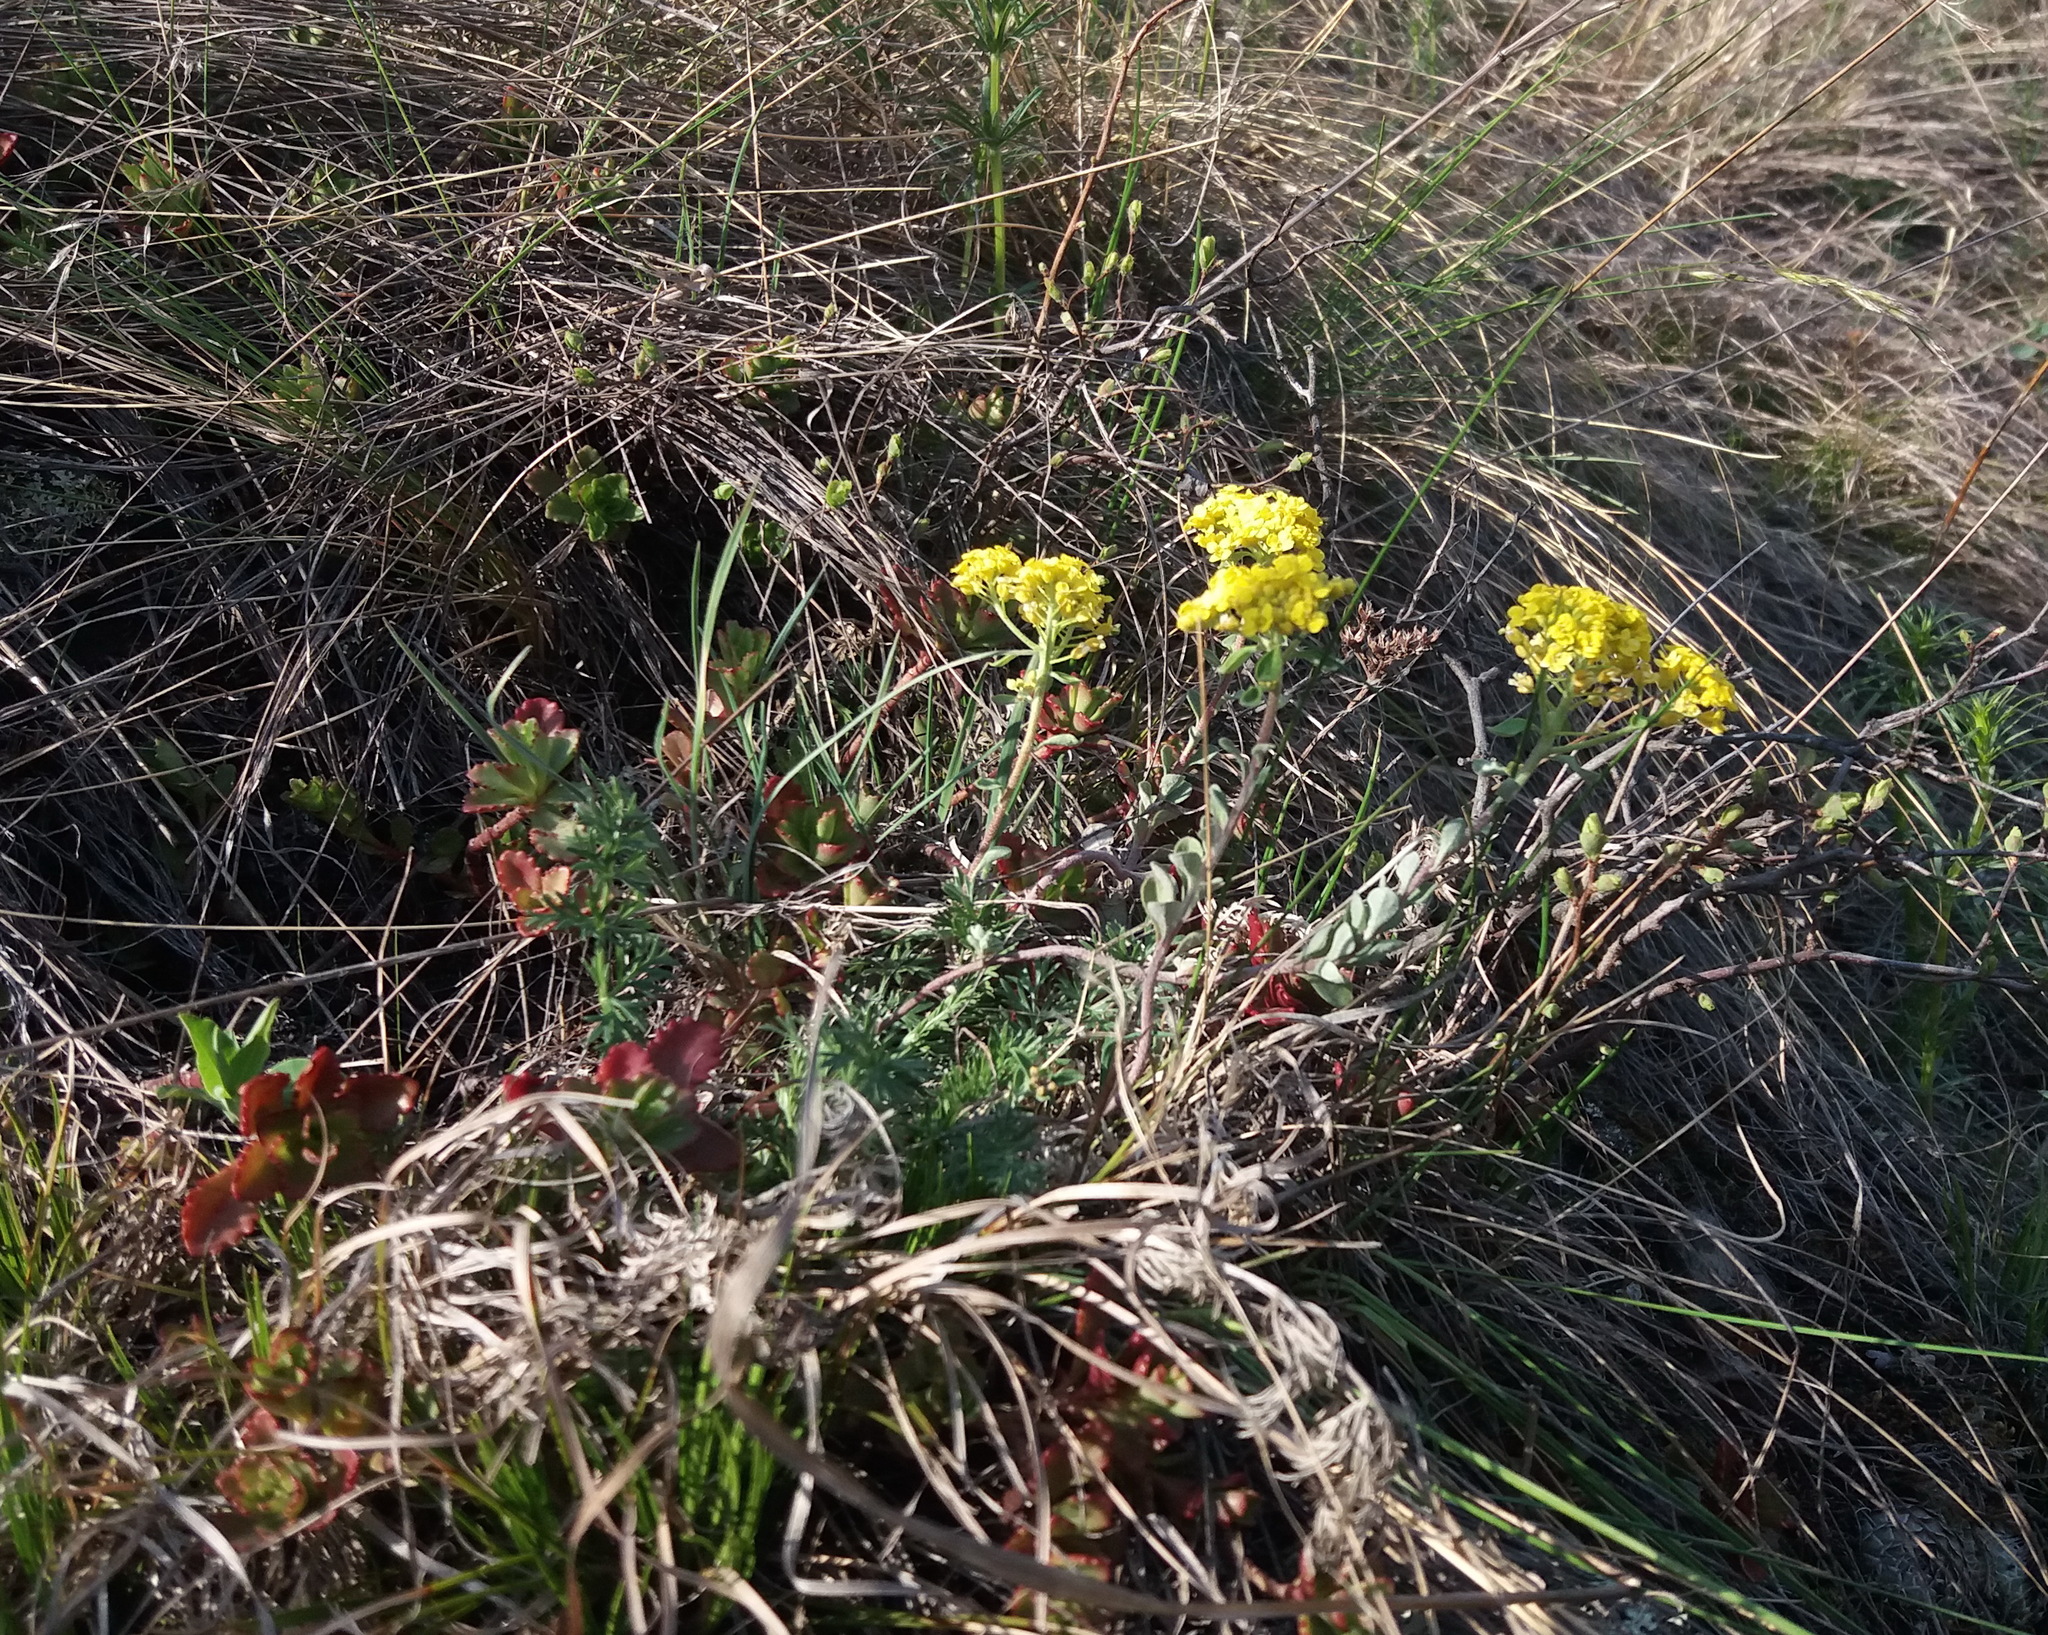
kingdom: Plantae
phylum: Tracheophyta
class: Magnoliopsida
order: Brassicales
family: Brassicaceae
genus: Odontarrhena
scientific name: Odontarrhena obovata
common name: American alyssum
